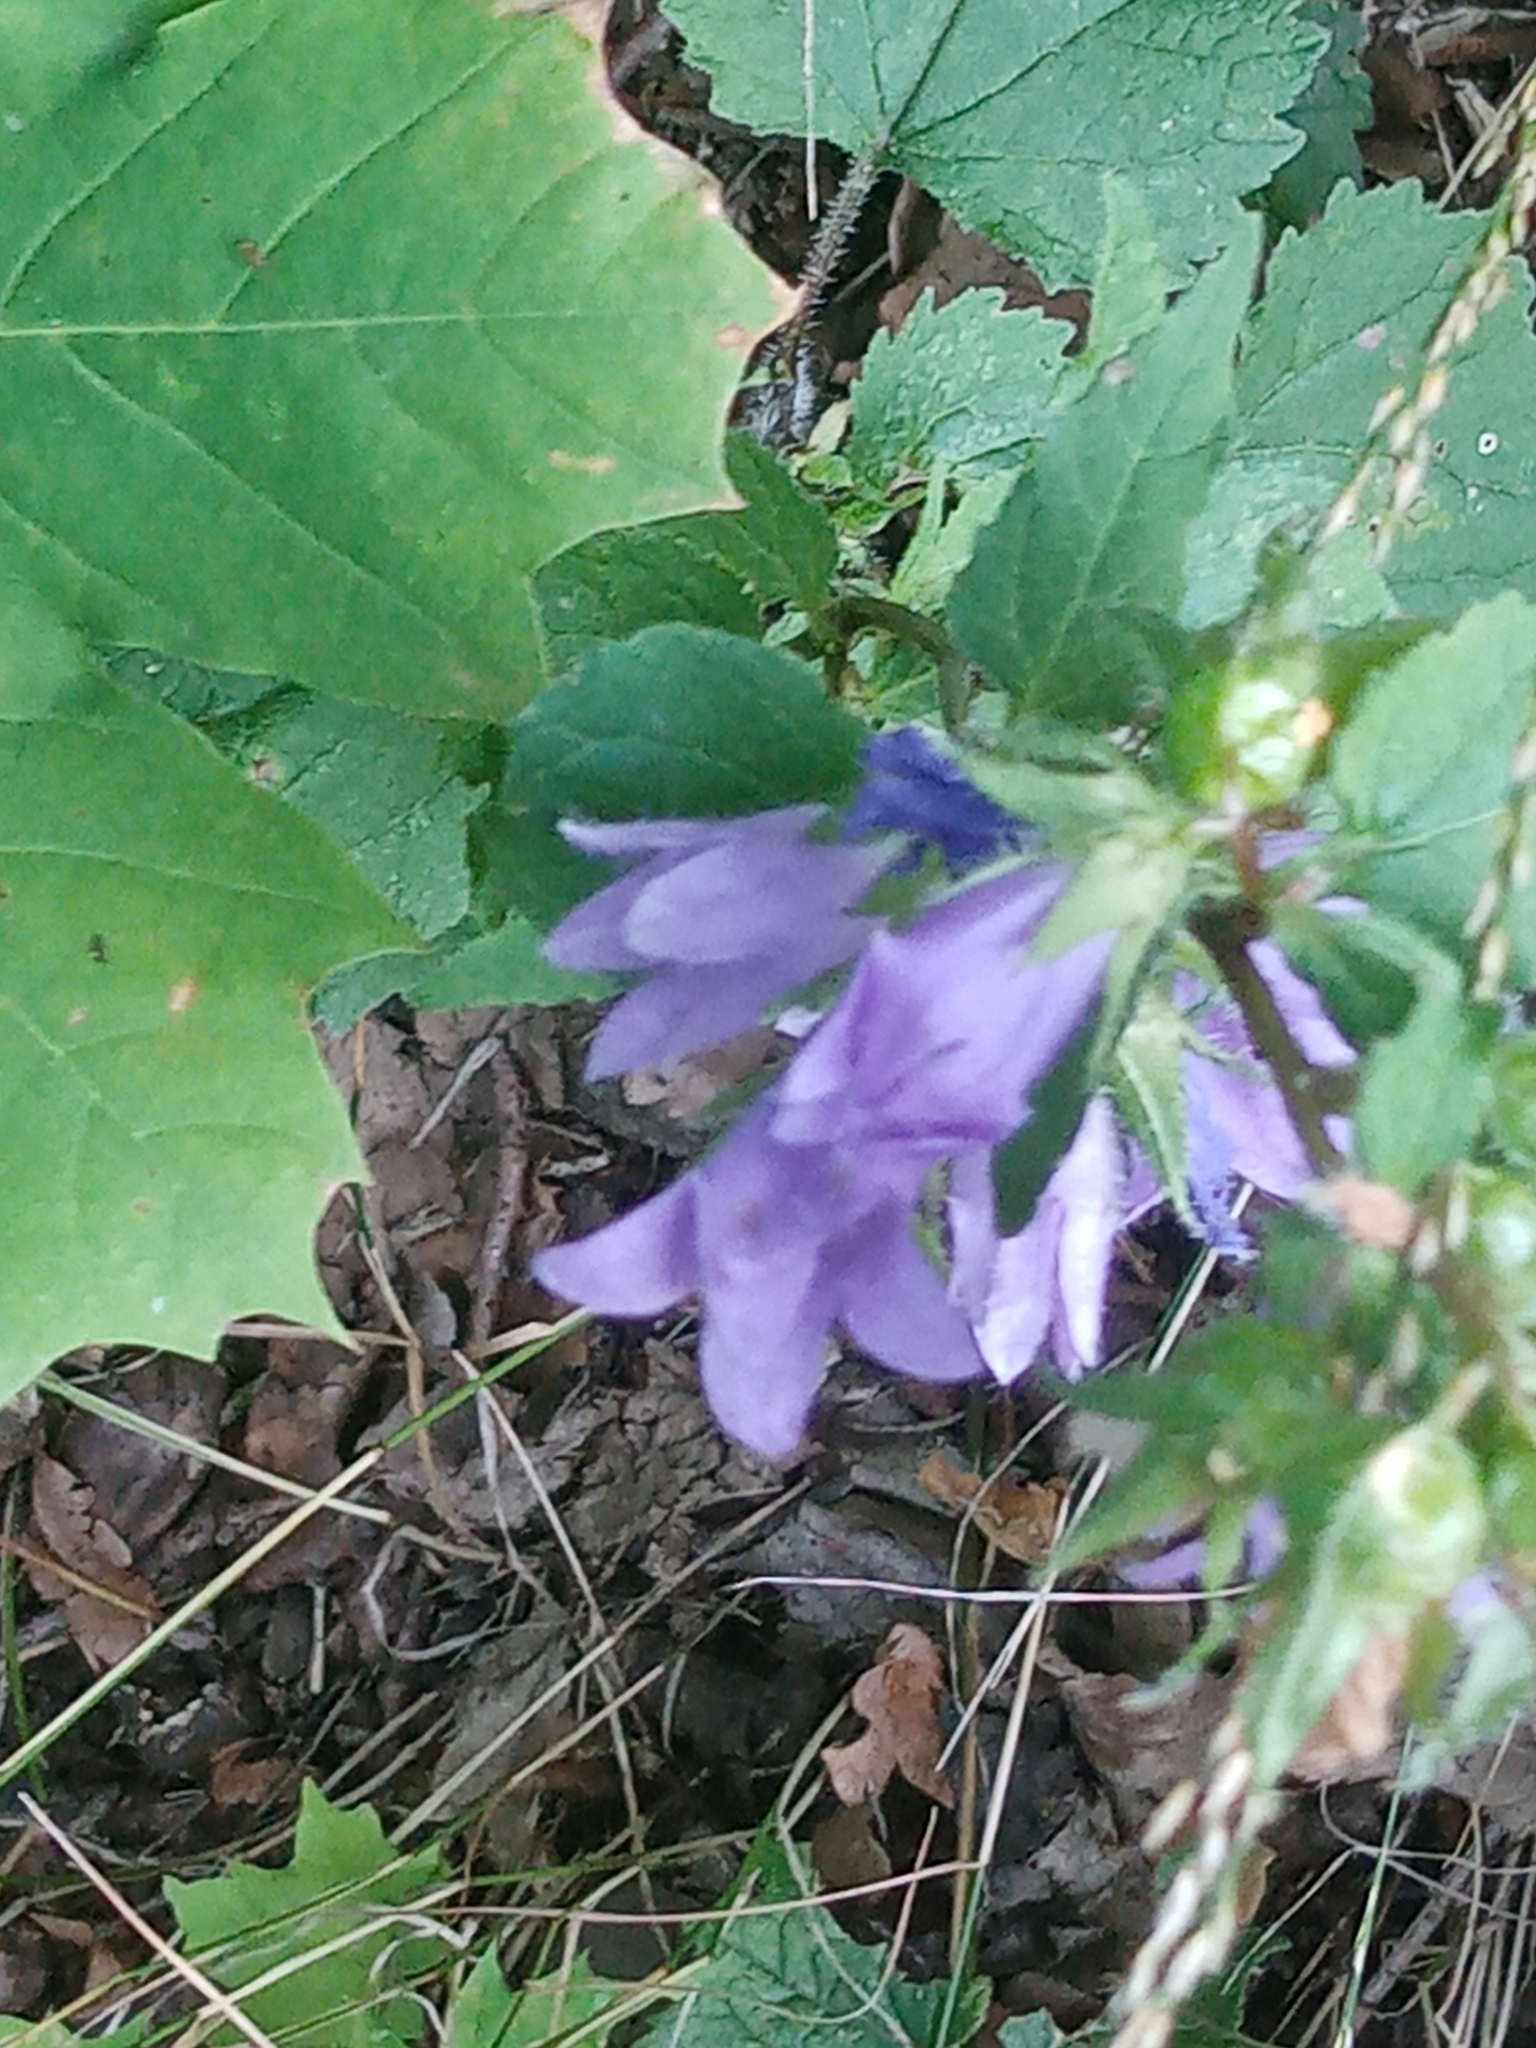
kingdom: Plantae
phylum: Tracheophyta
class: Magnoliopsida
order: Asterales
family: Campanulaceae
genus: Campanula
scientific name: Campanula trachelium
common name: Nettle-leaved bellflower
